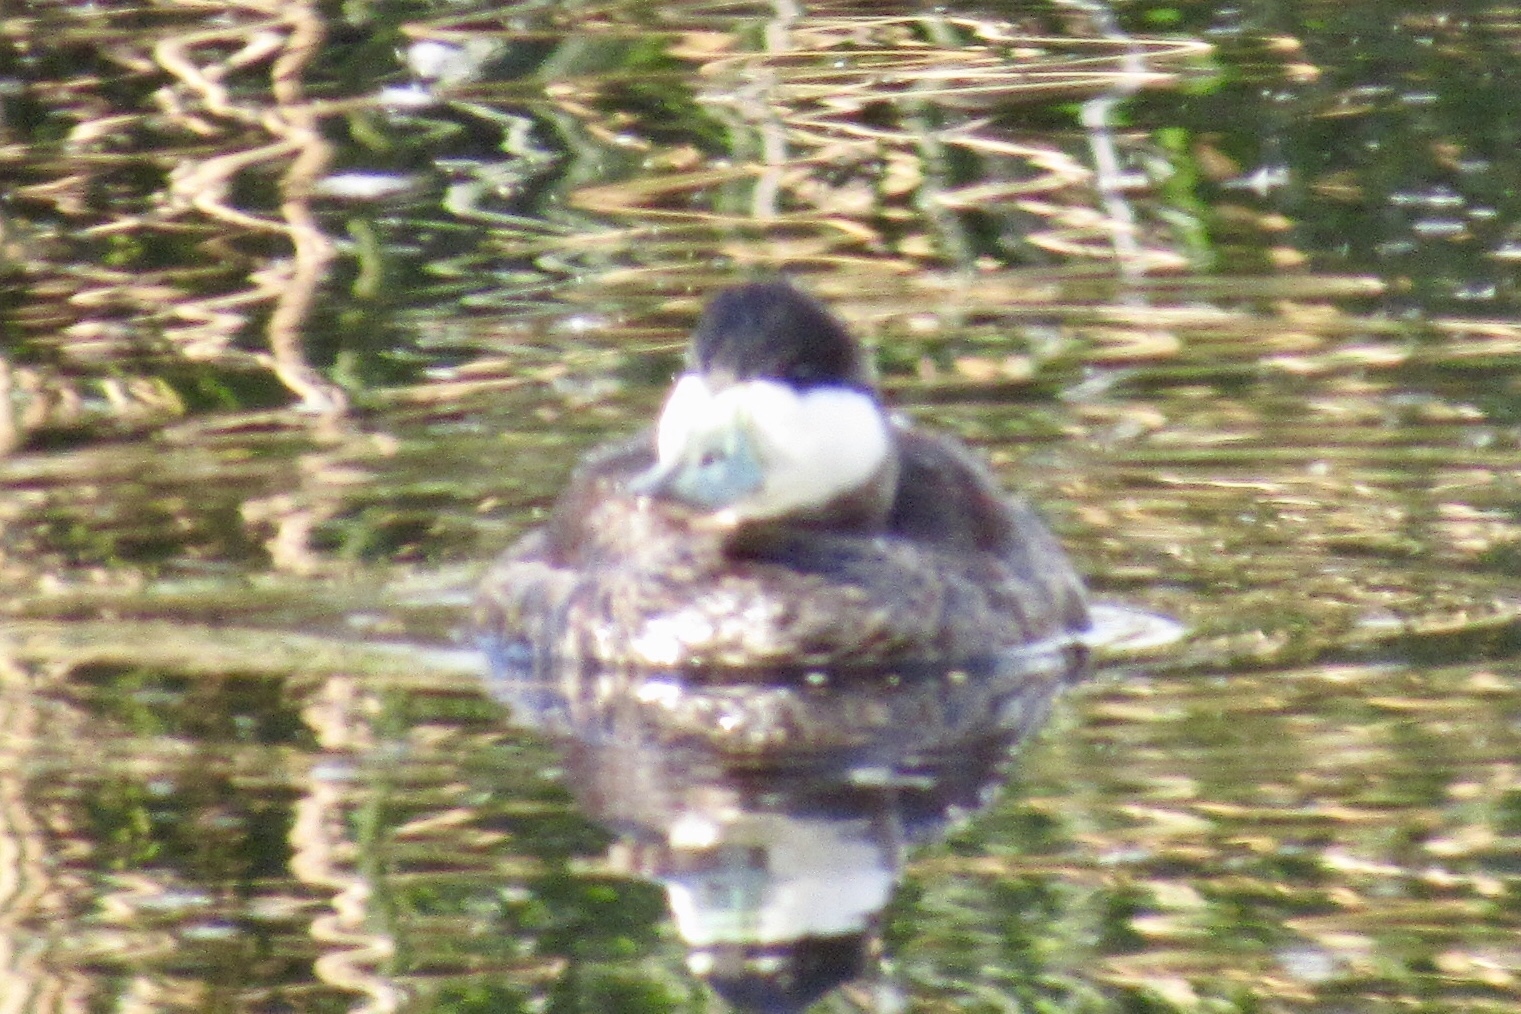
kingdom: Animalia
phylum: Chordata
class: Aves
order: Anseriformes
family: Anatidae
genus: Oxyura
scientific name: Oxyura jamaicensis
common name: Ruddy duck
